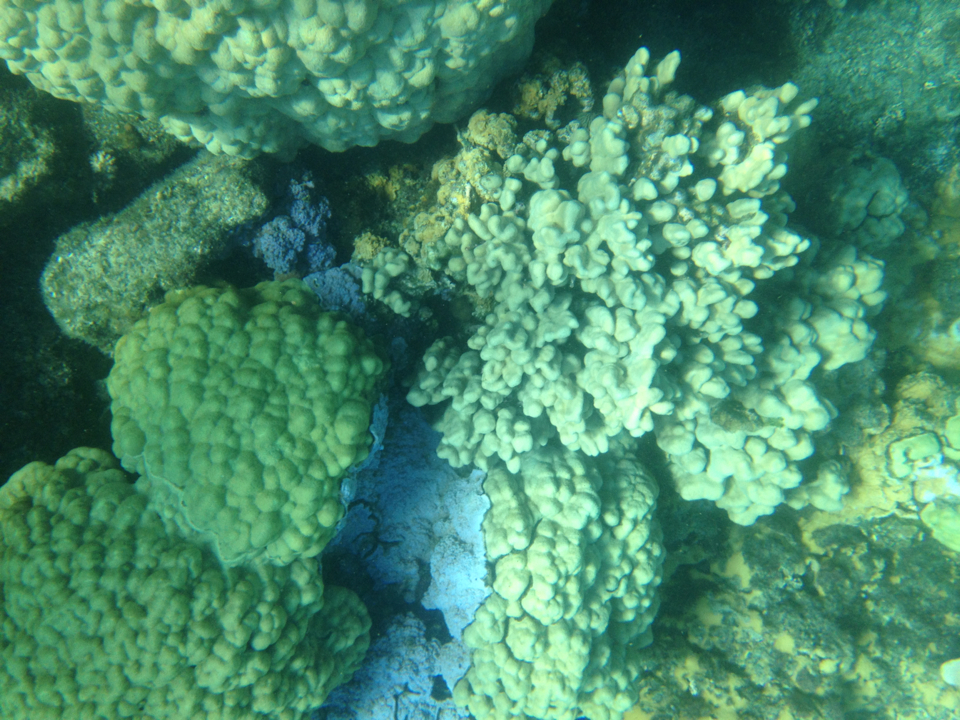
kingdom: Animalia
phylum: Cnidaria
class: Anthozoa
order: Scleractinia
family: Poritidae
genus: Porites
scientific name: Porites compressa
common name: Hump coral
